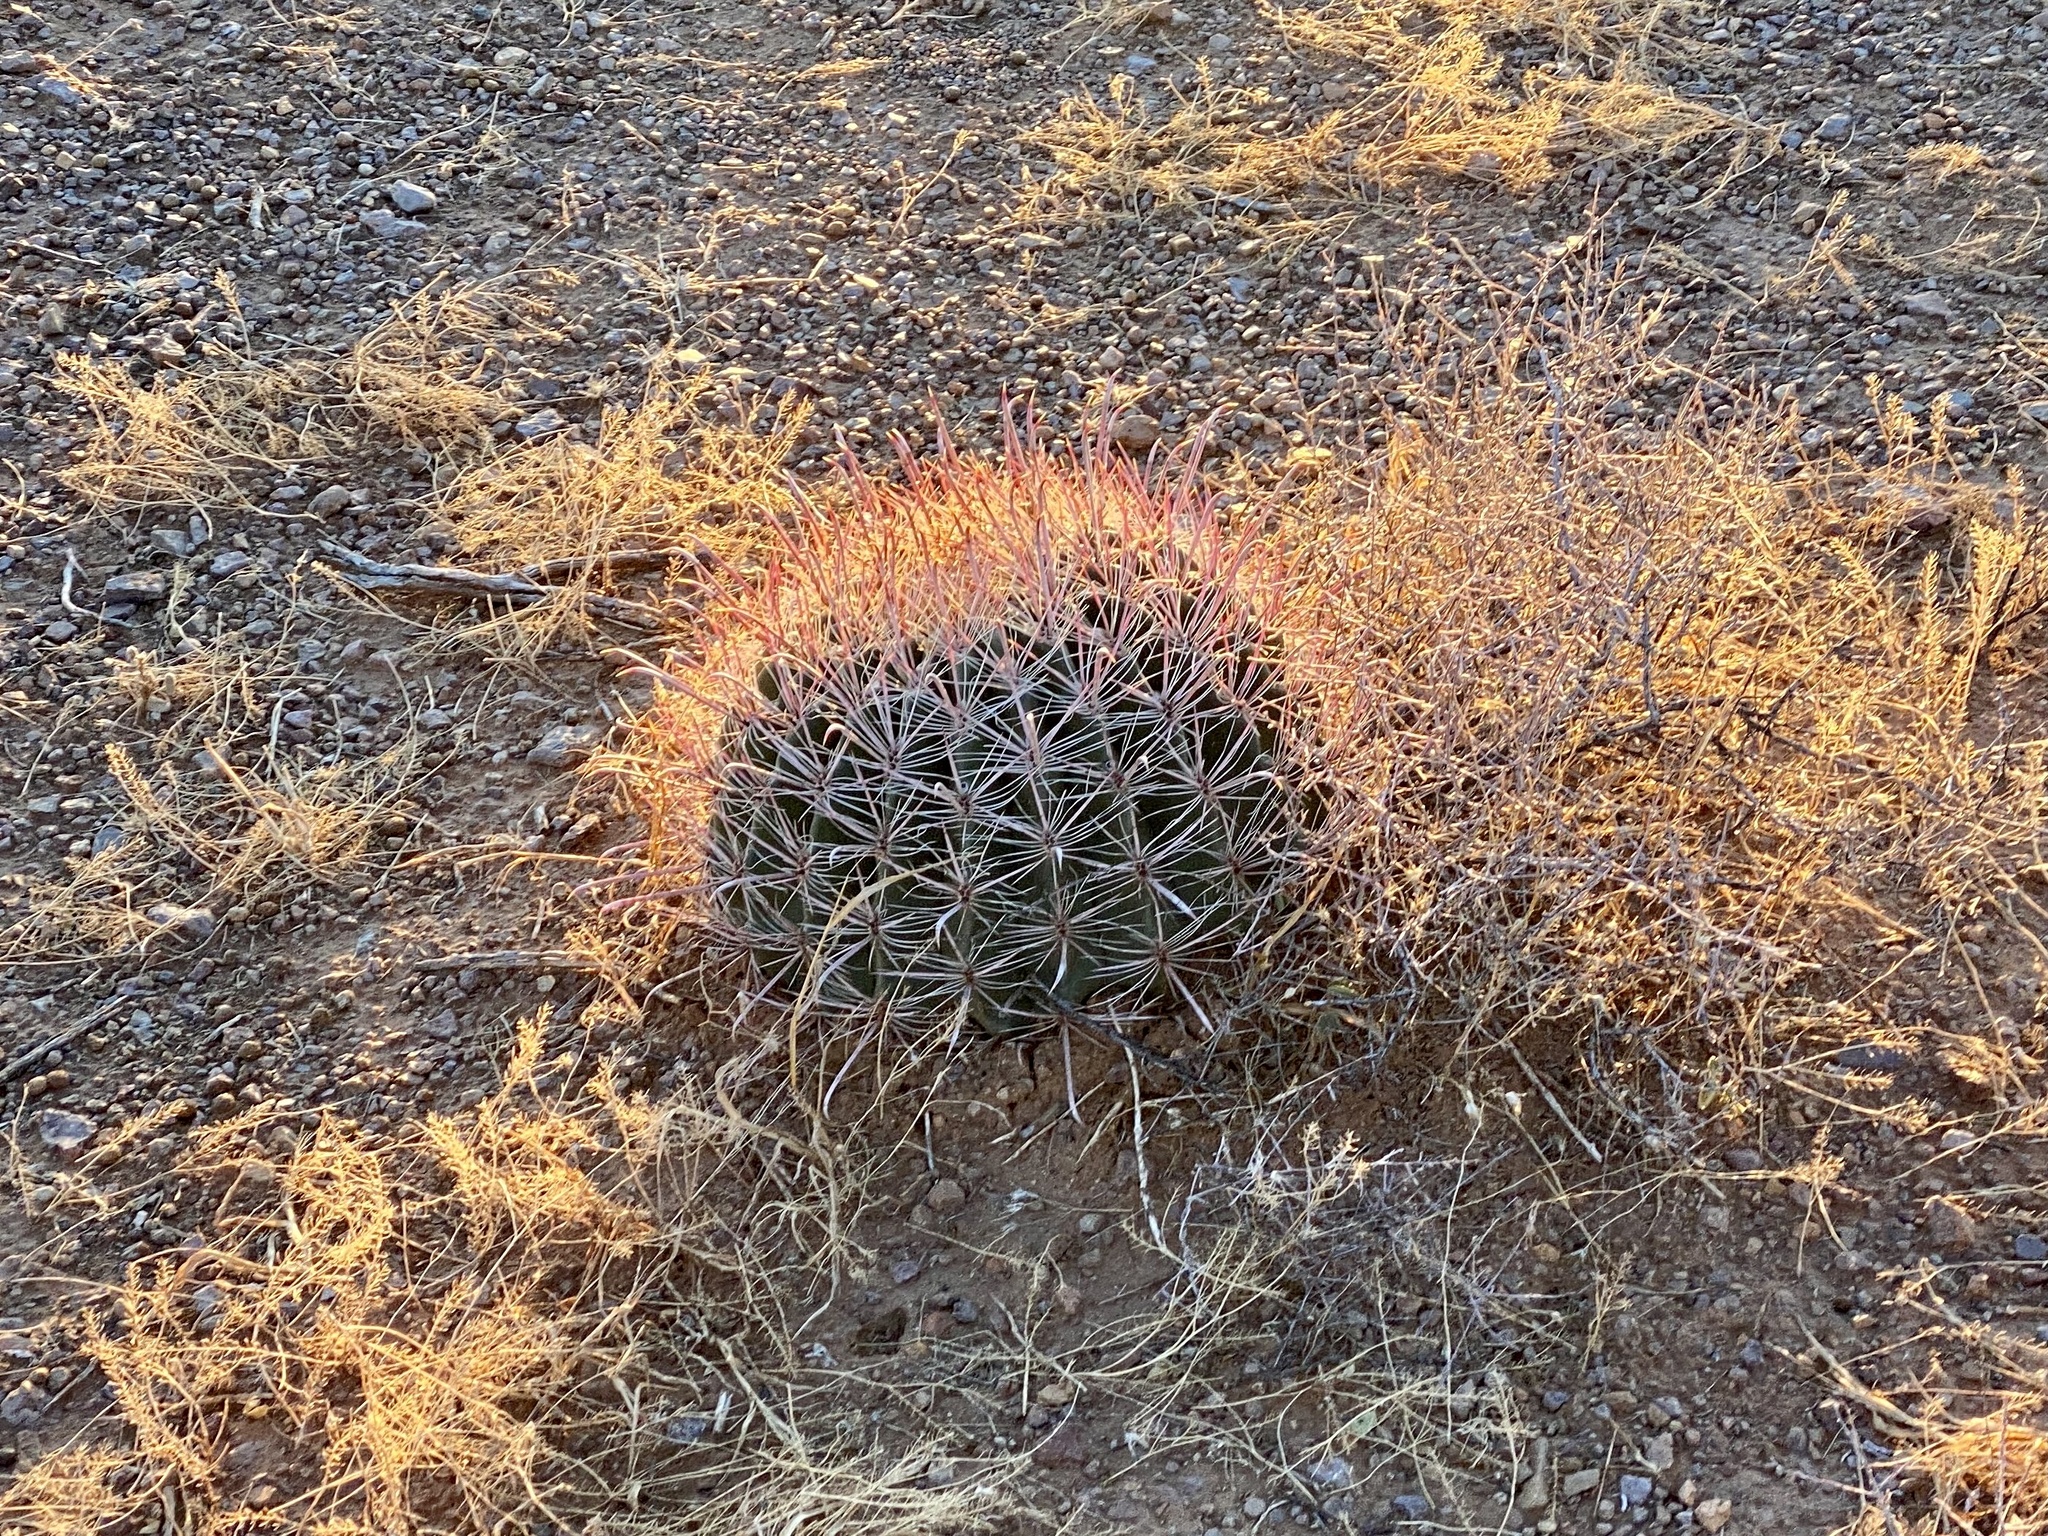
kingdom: Plantae
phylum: Tracheophyta
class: Magnoliopsida
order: Caryophyllales
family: Cactaceae
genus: Ferocactus
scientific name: Ferocactus wislizeni
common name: Candy barrel cactus
